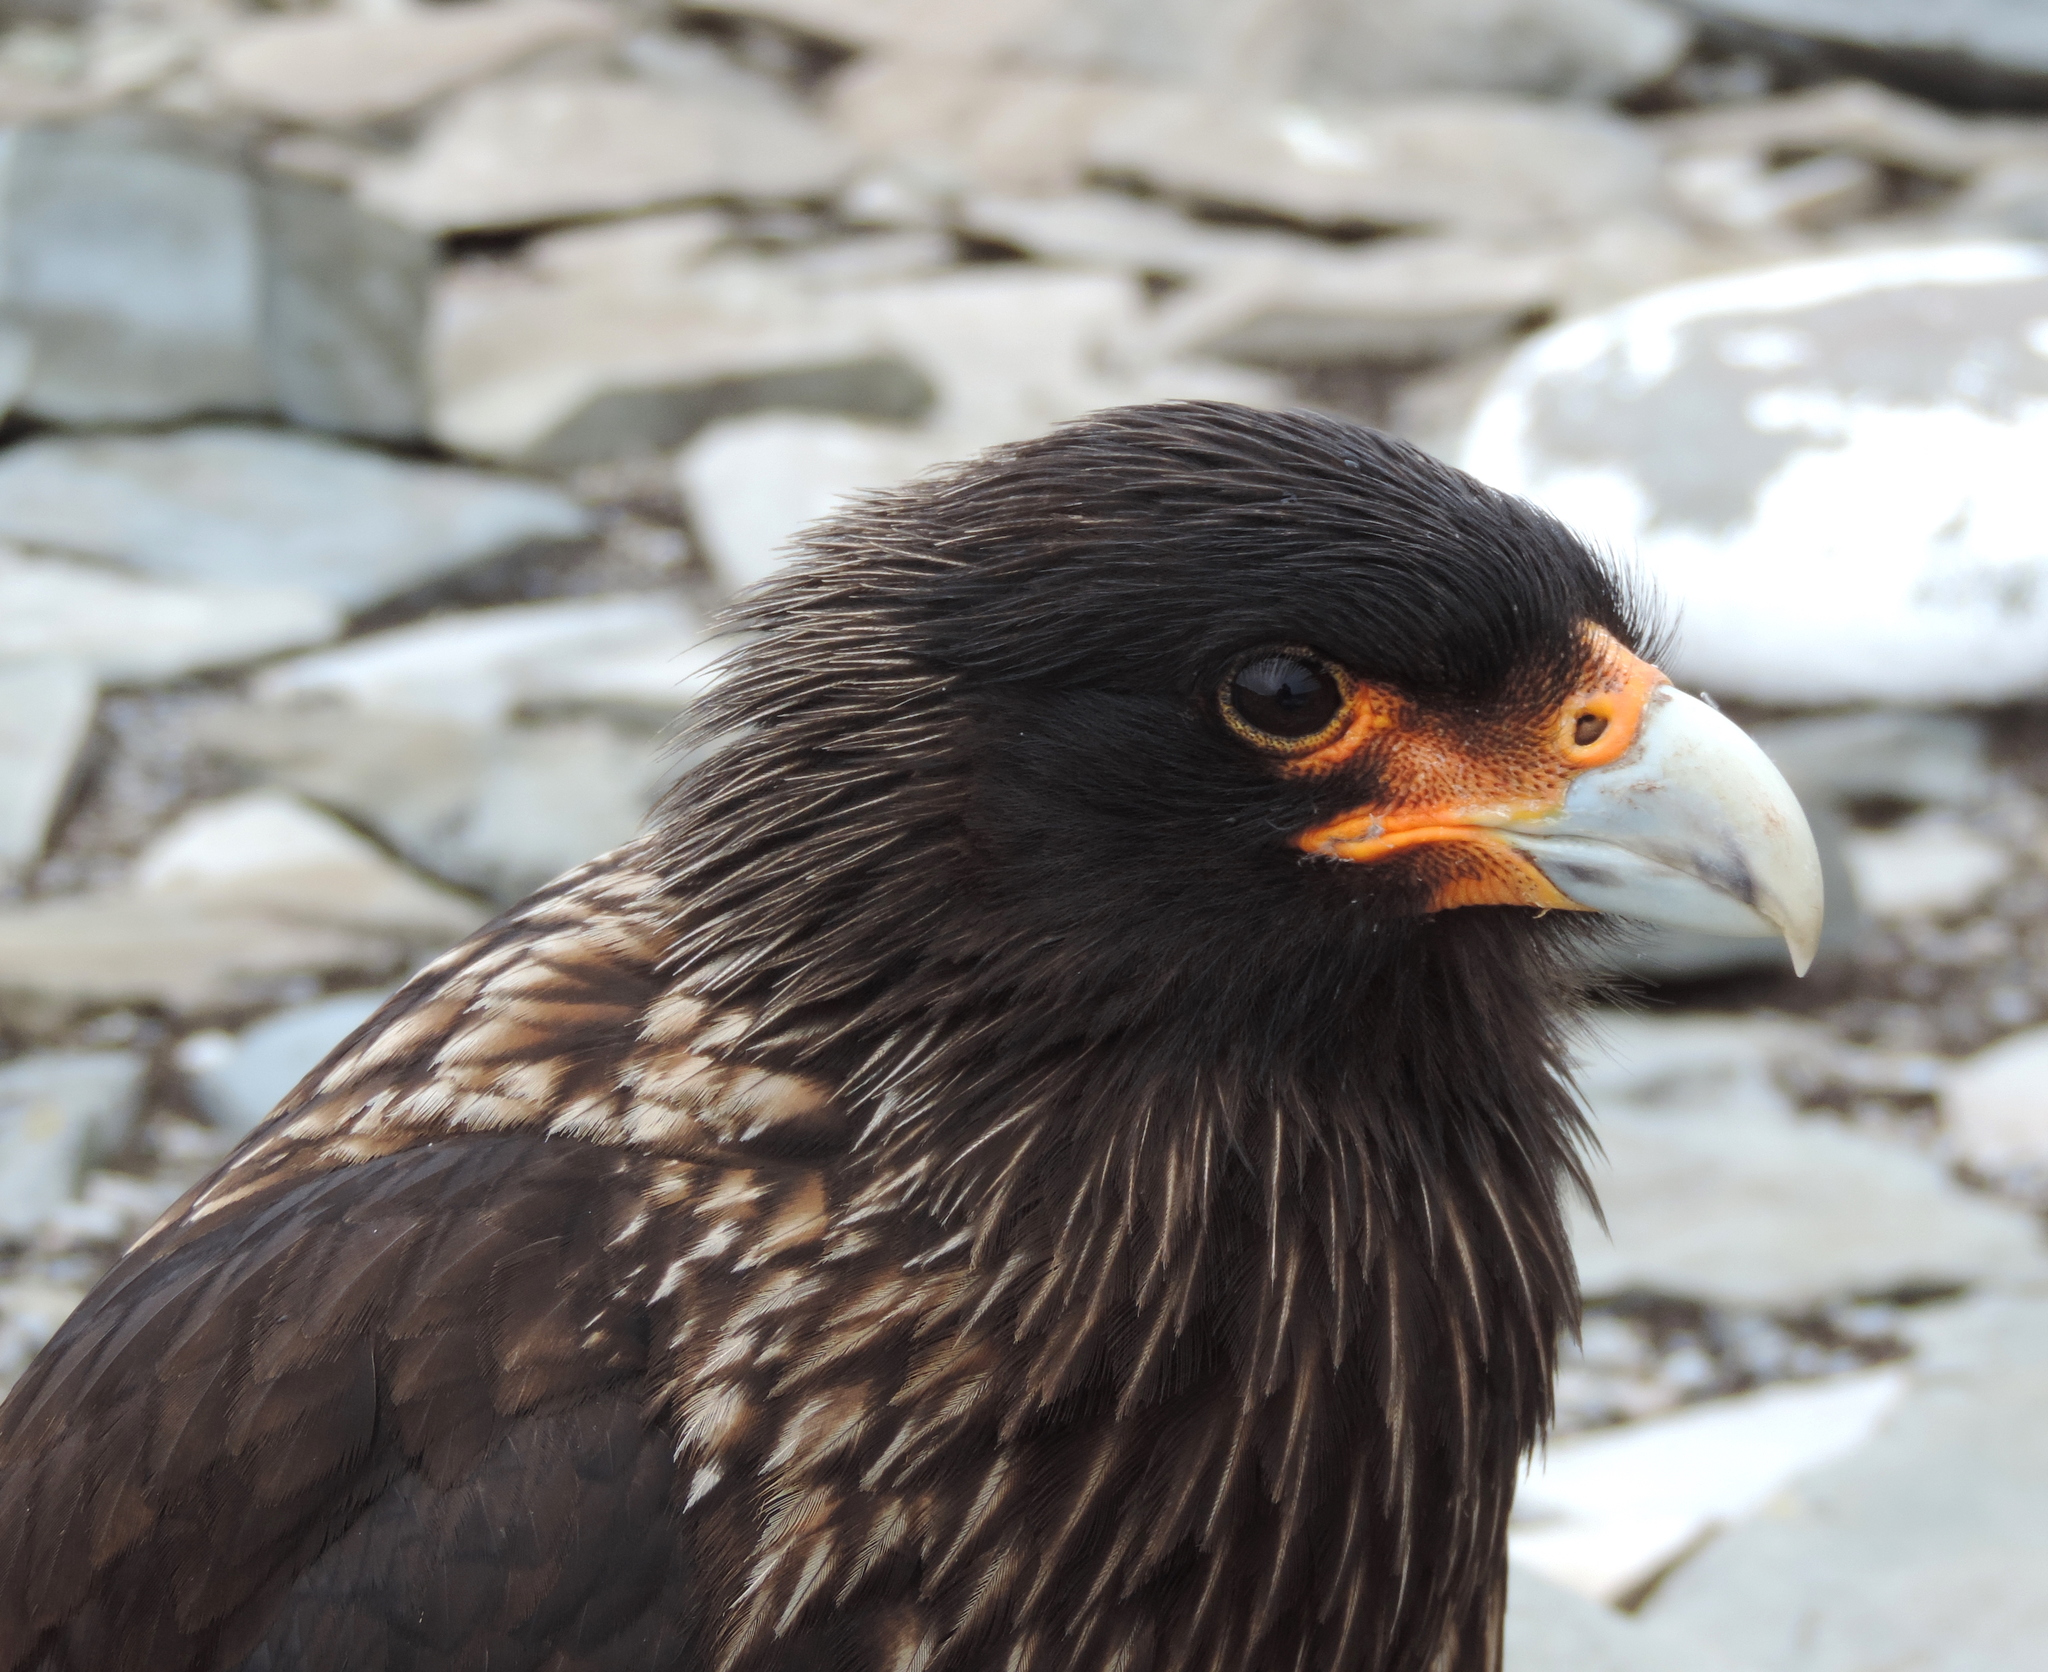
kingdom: Animalia
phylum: Chordata
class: Aves
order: Falconiformes
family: Falconidae
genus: Daptrius
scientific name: Daptrius
